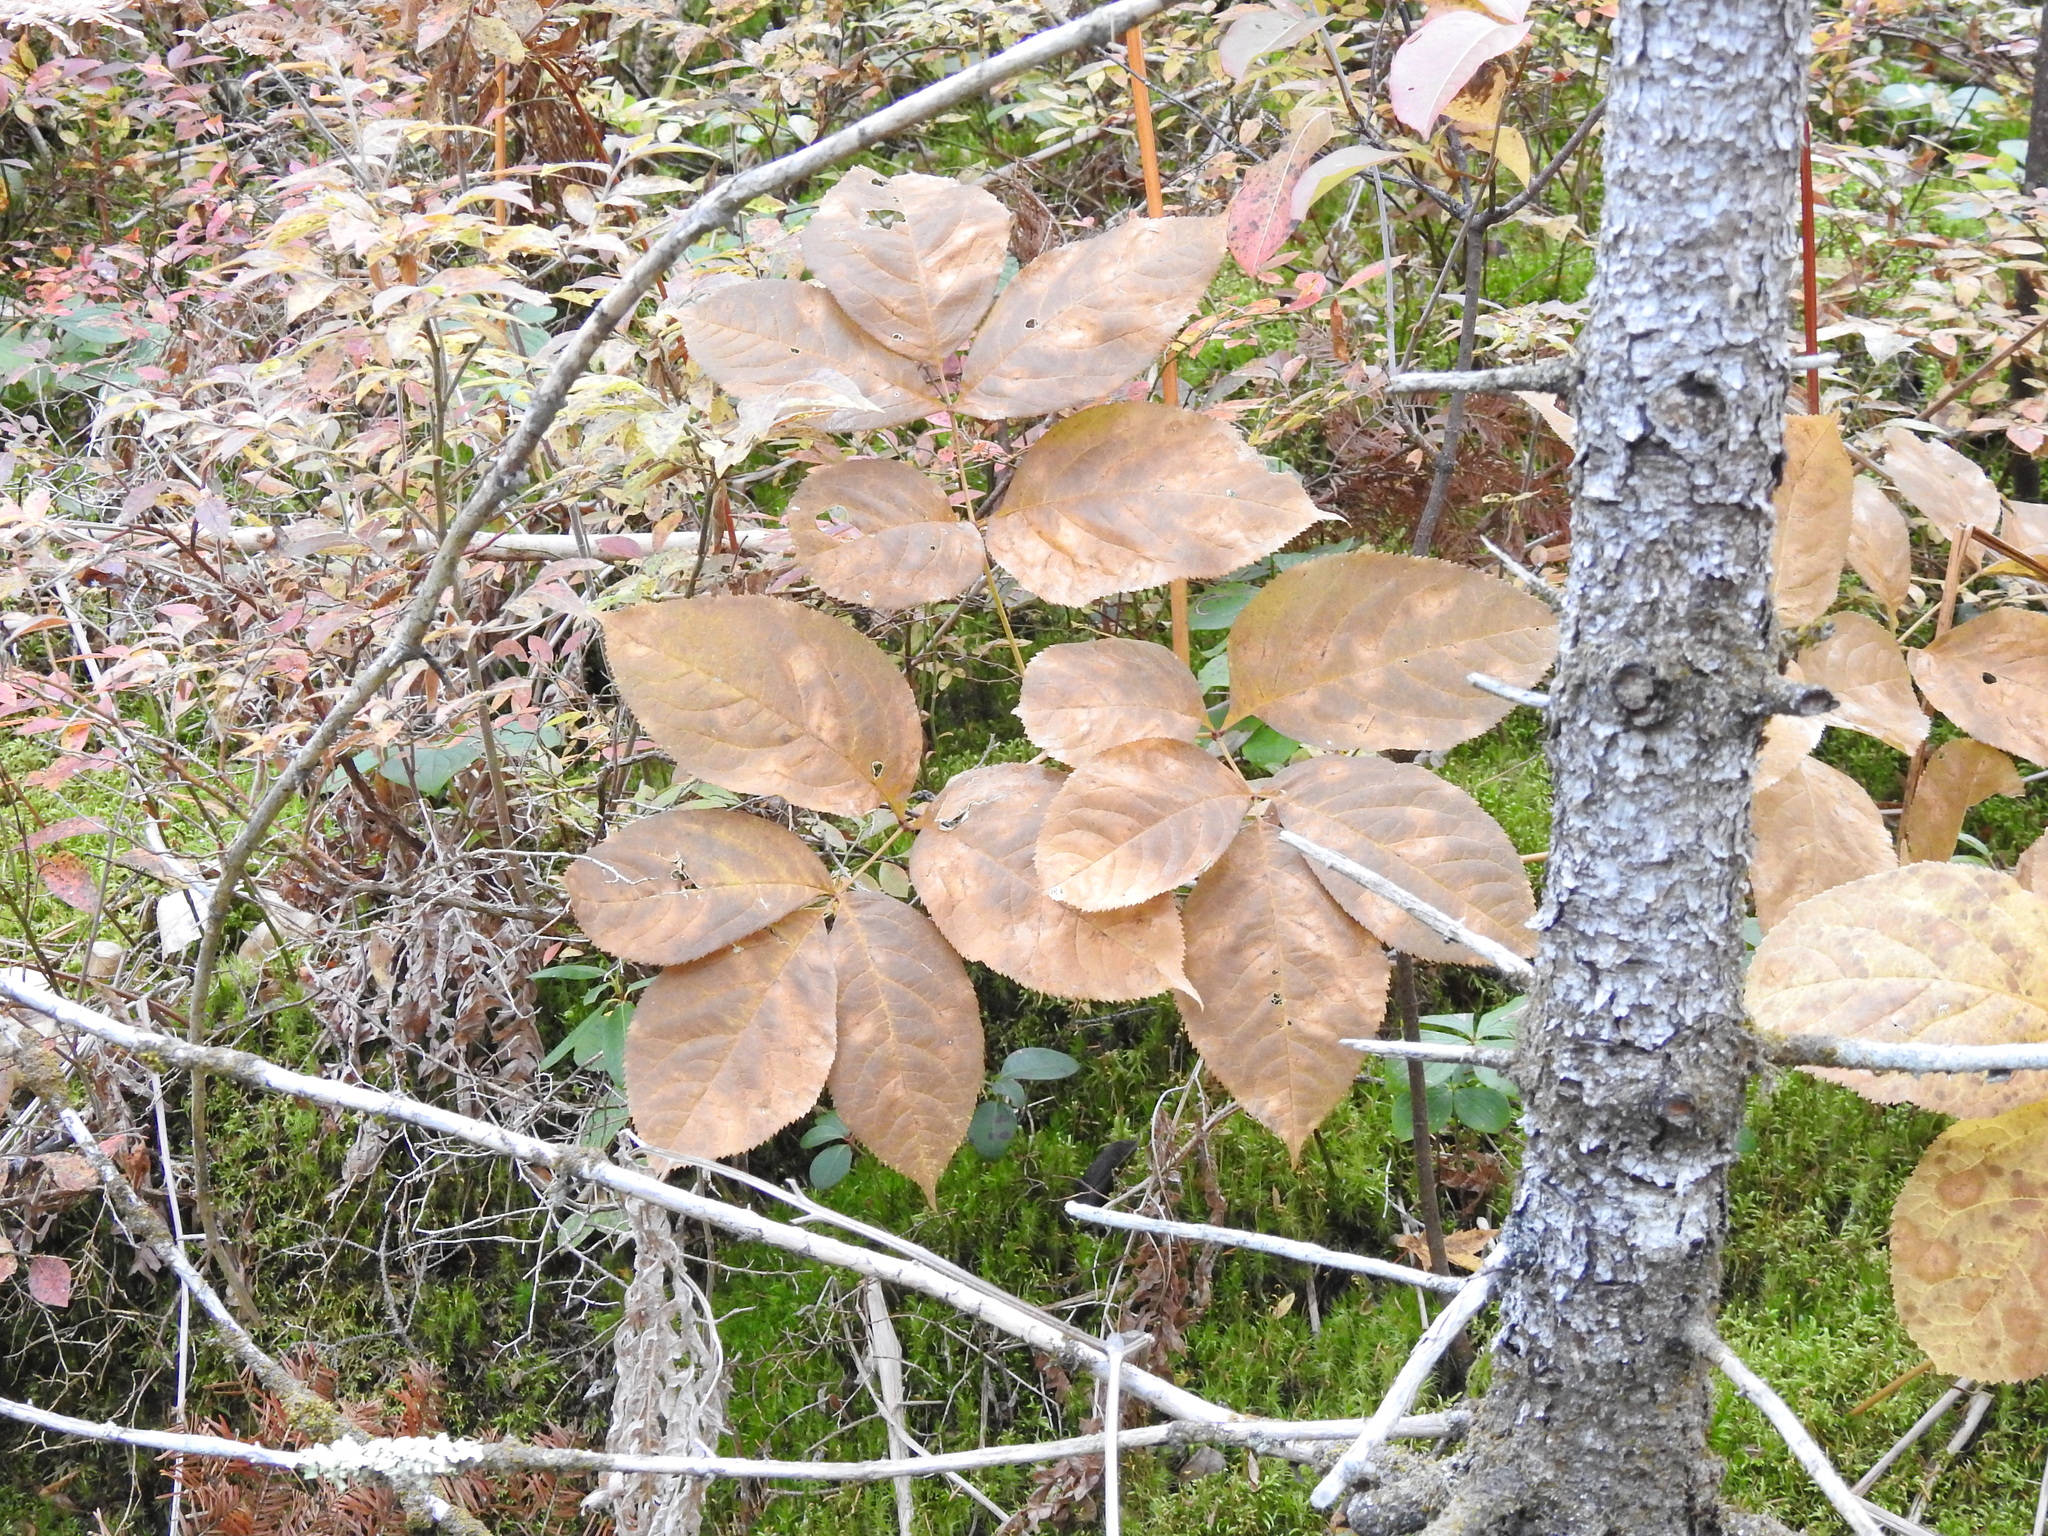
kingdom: Plantae
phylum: Tracheophyta
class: Magnoliopsida
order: Apiales
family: Araliaceae
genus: Aralia
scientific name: Aralia nudicaulis
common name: Wild sarsaparilla
